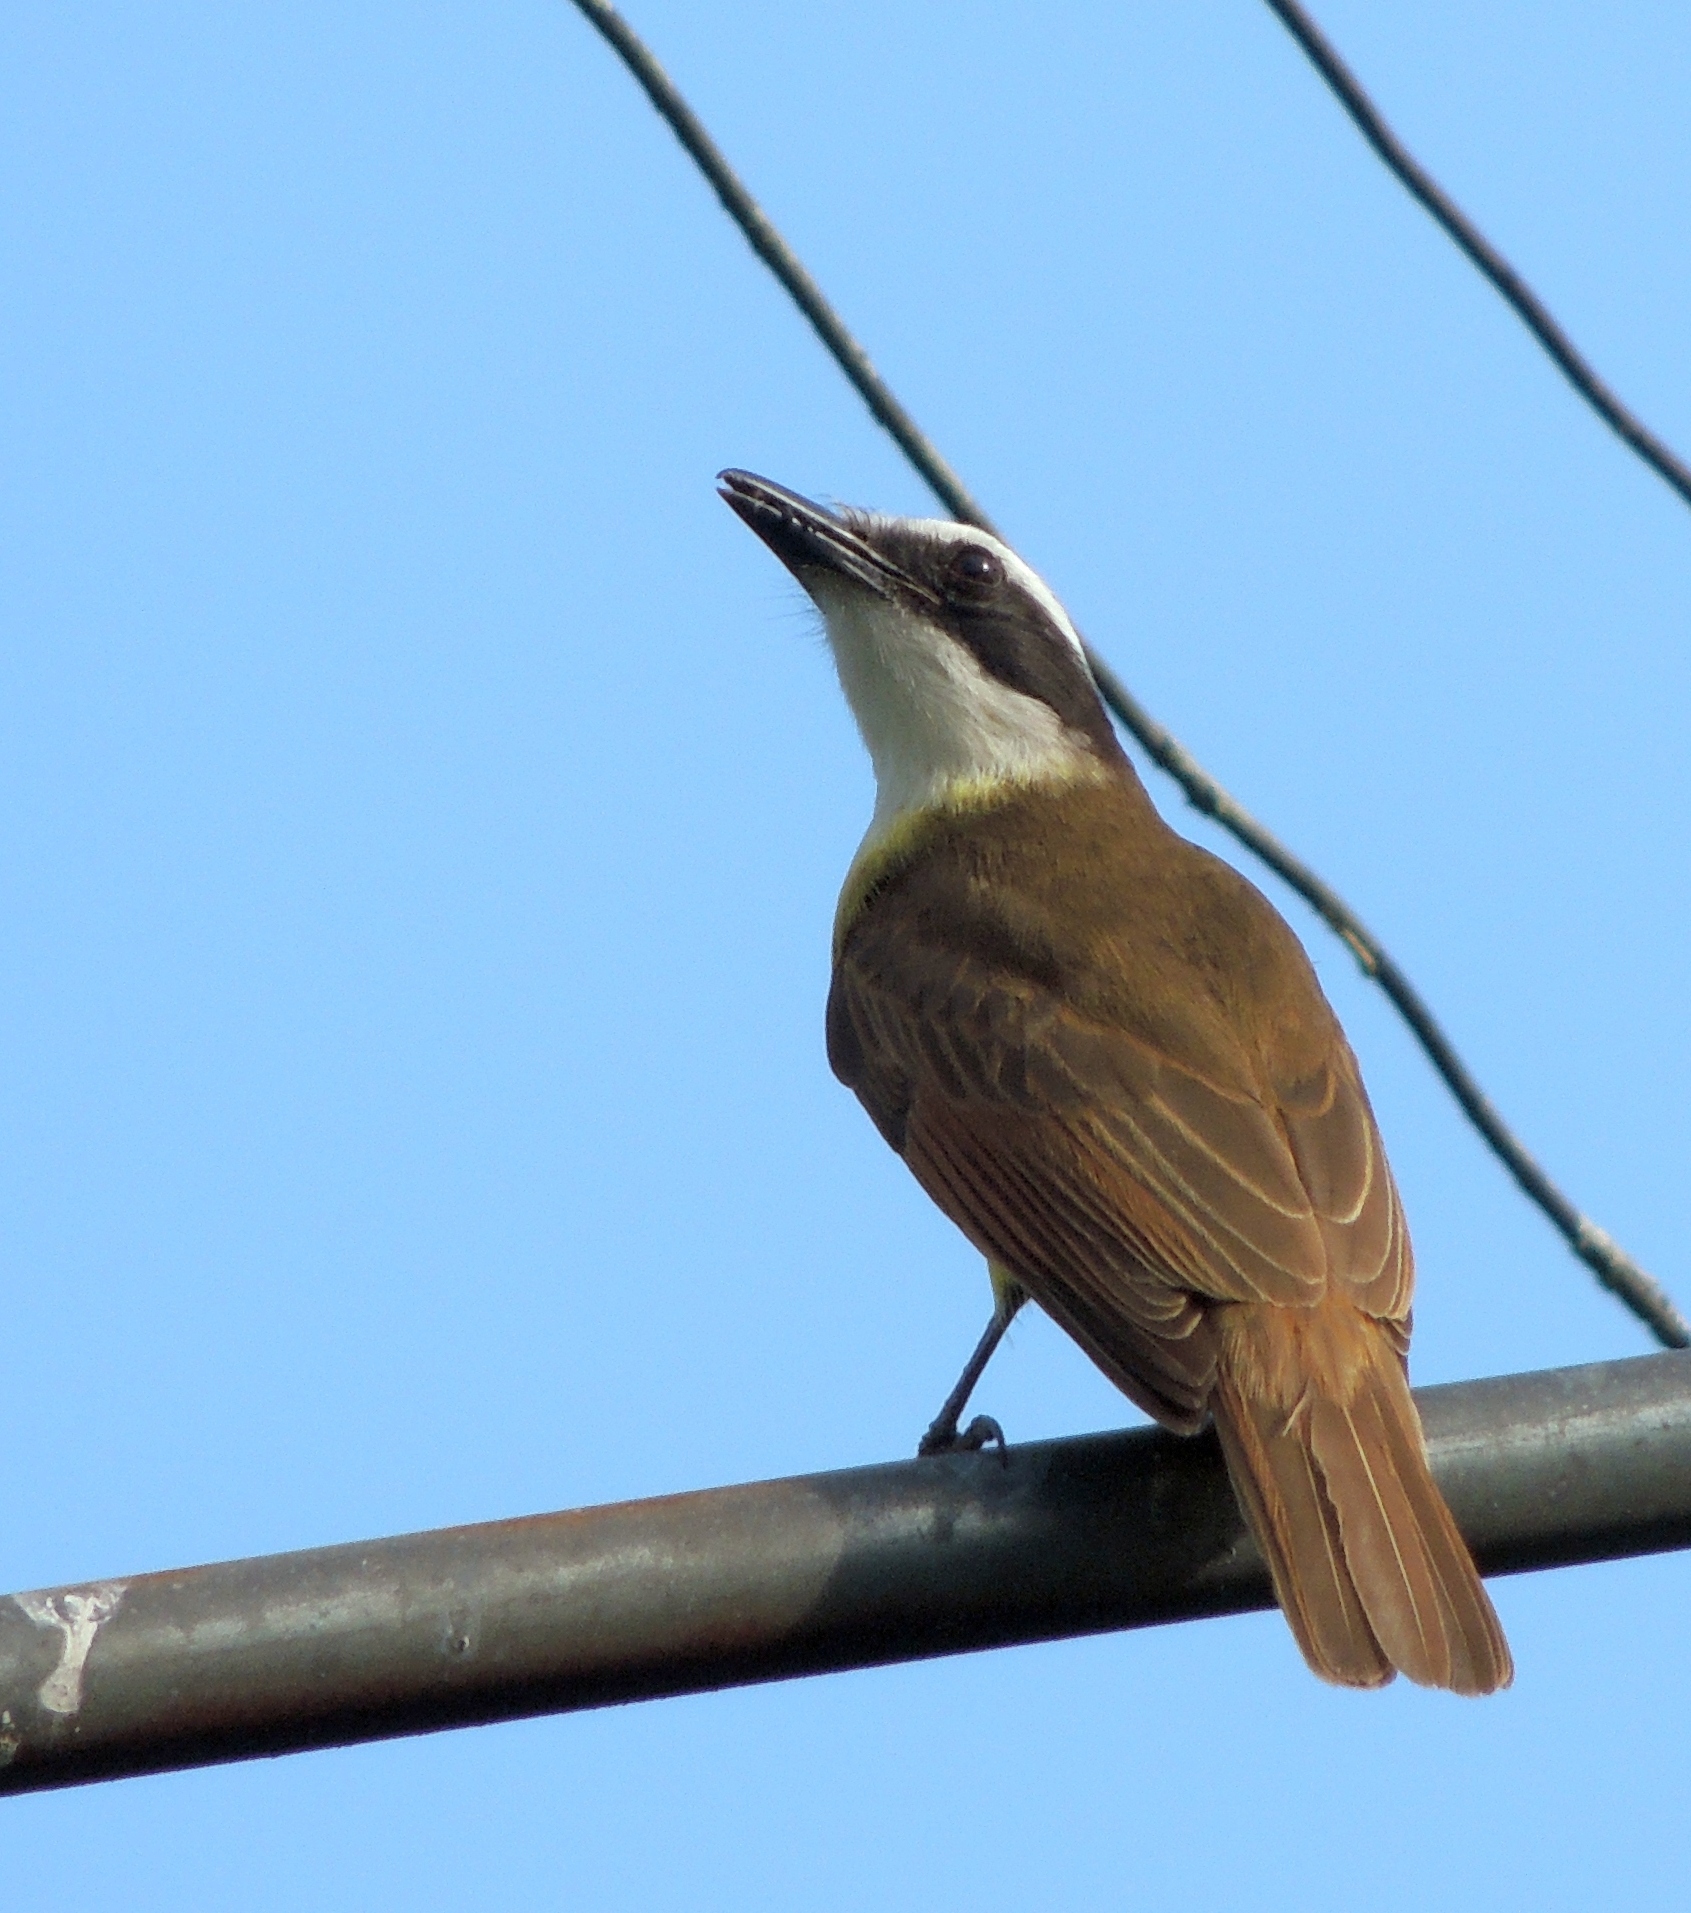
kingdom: Animalia
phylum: Chordata
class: Aves
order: Passeriformes
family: Tyrannidae
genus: Pitangus
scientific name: Pitangus sulphuratus
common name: Great kiskadee
